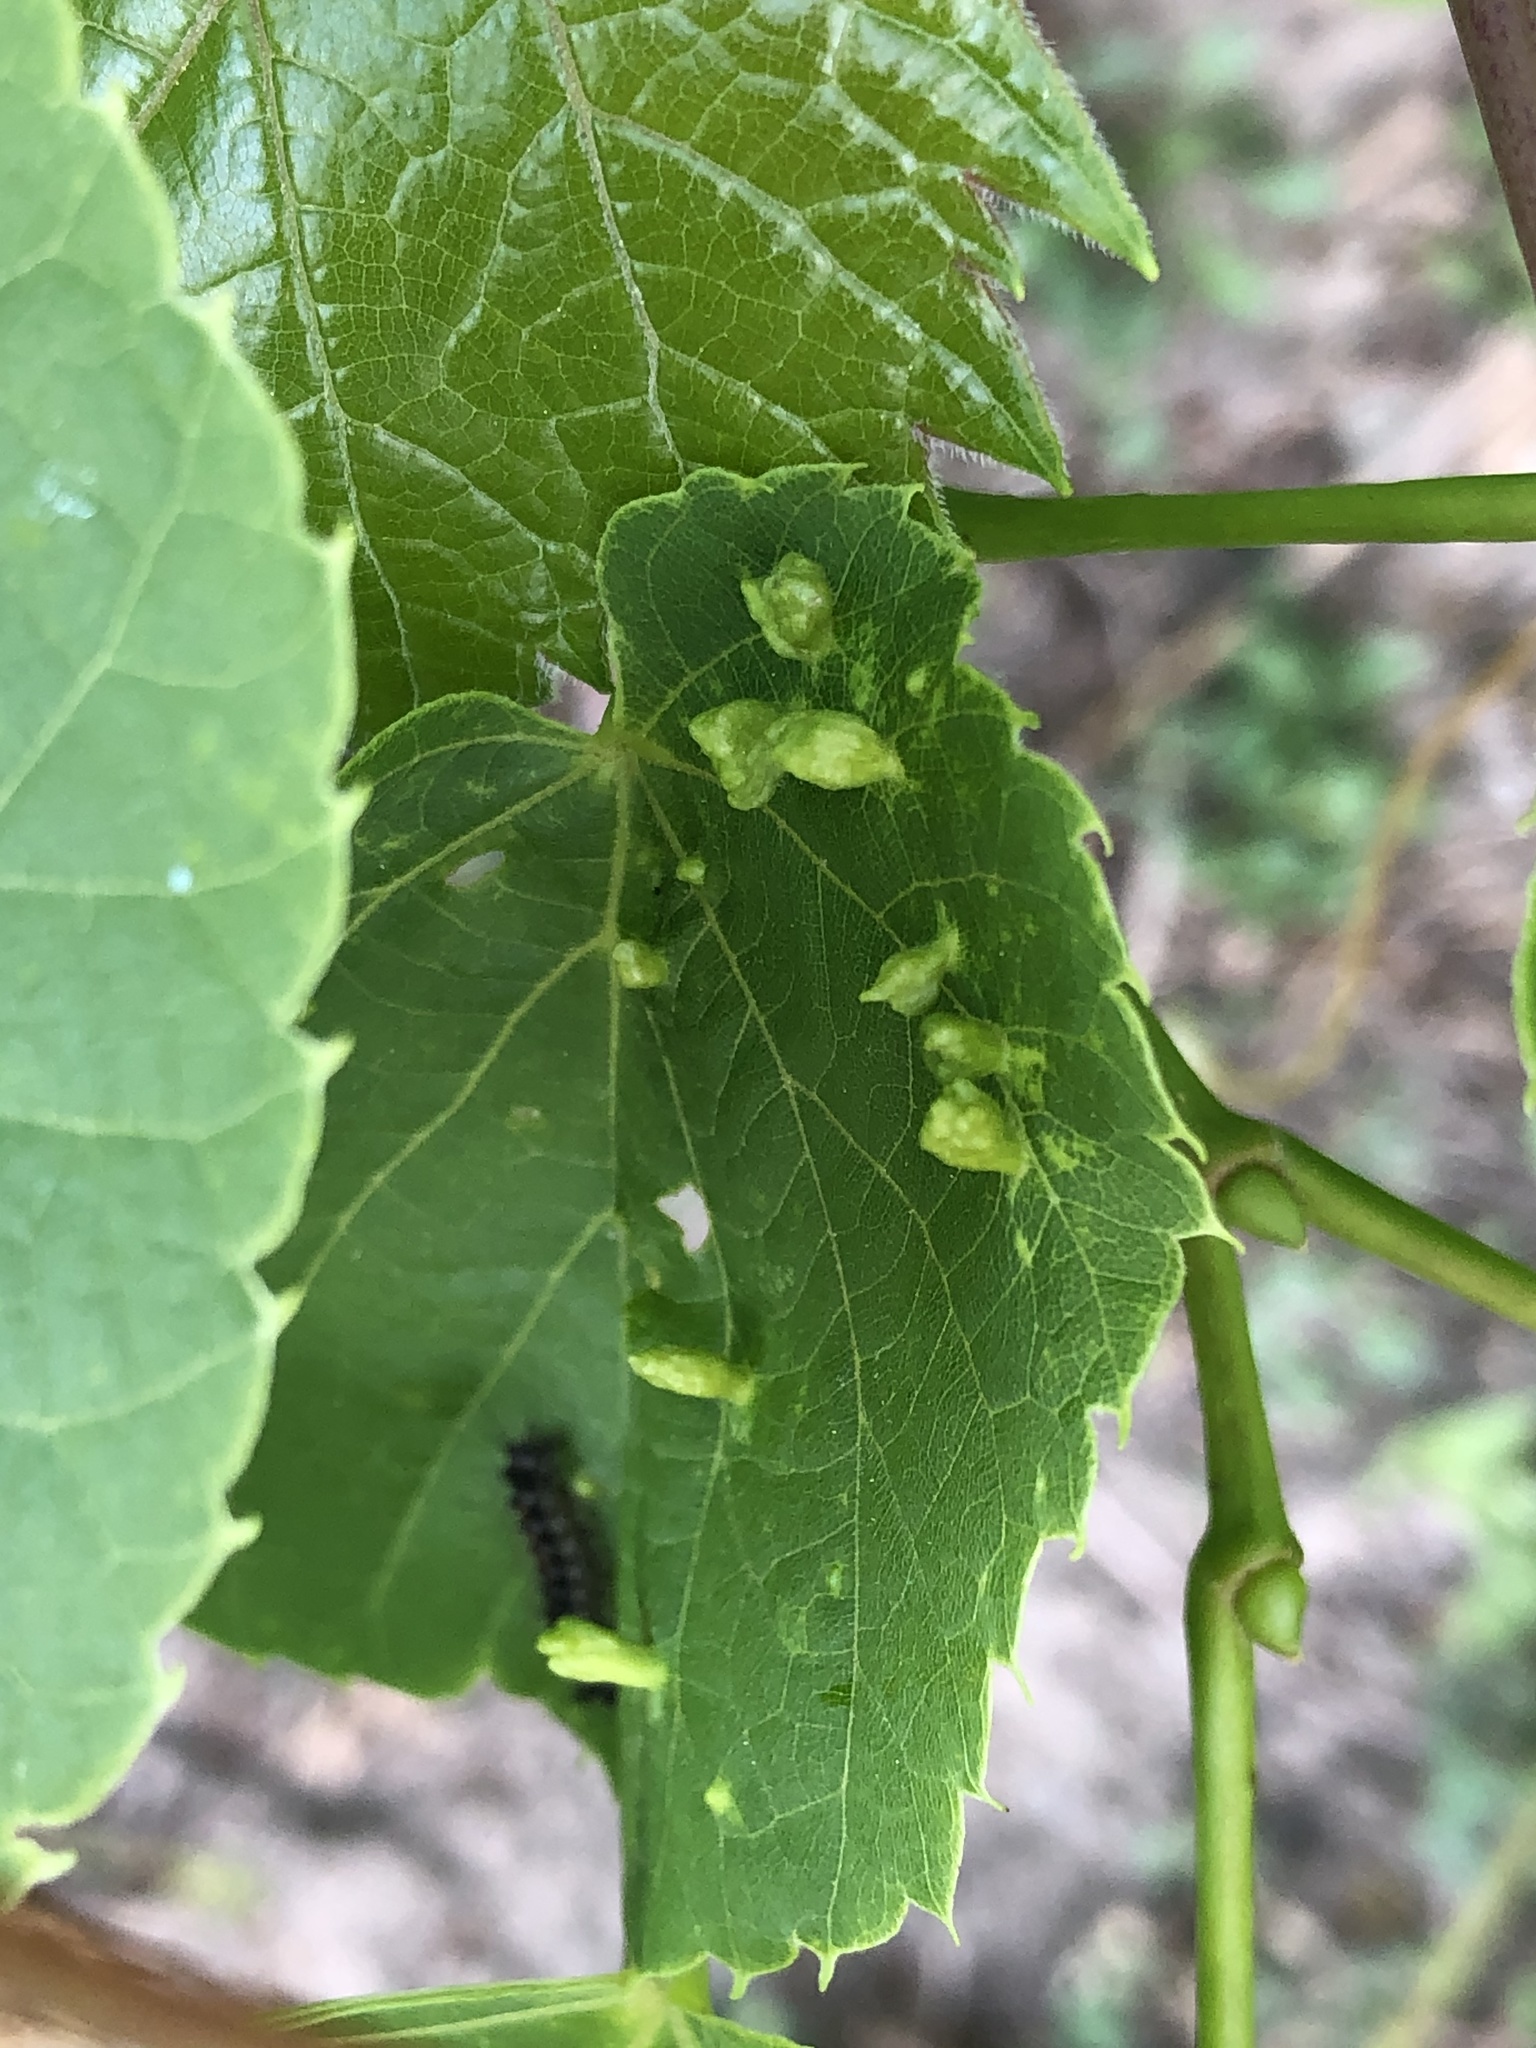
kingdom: Animalia
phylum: Arthropoda
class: Arachnida
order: Trombidiformes
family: Eriophyidae
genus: Eriophyes
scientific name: Eriophyes tiliae
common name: Red nail gall mite
